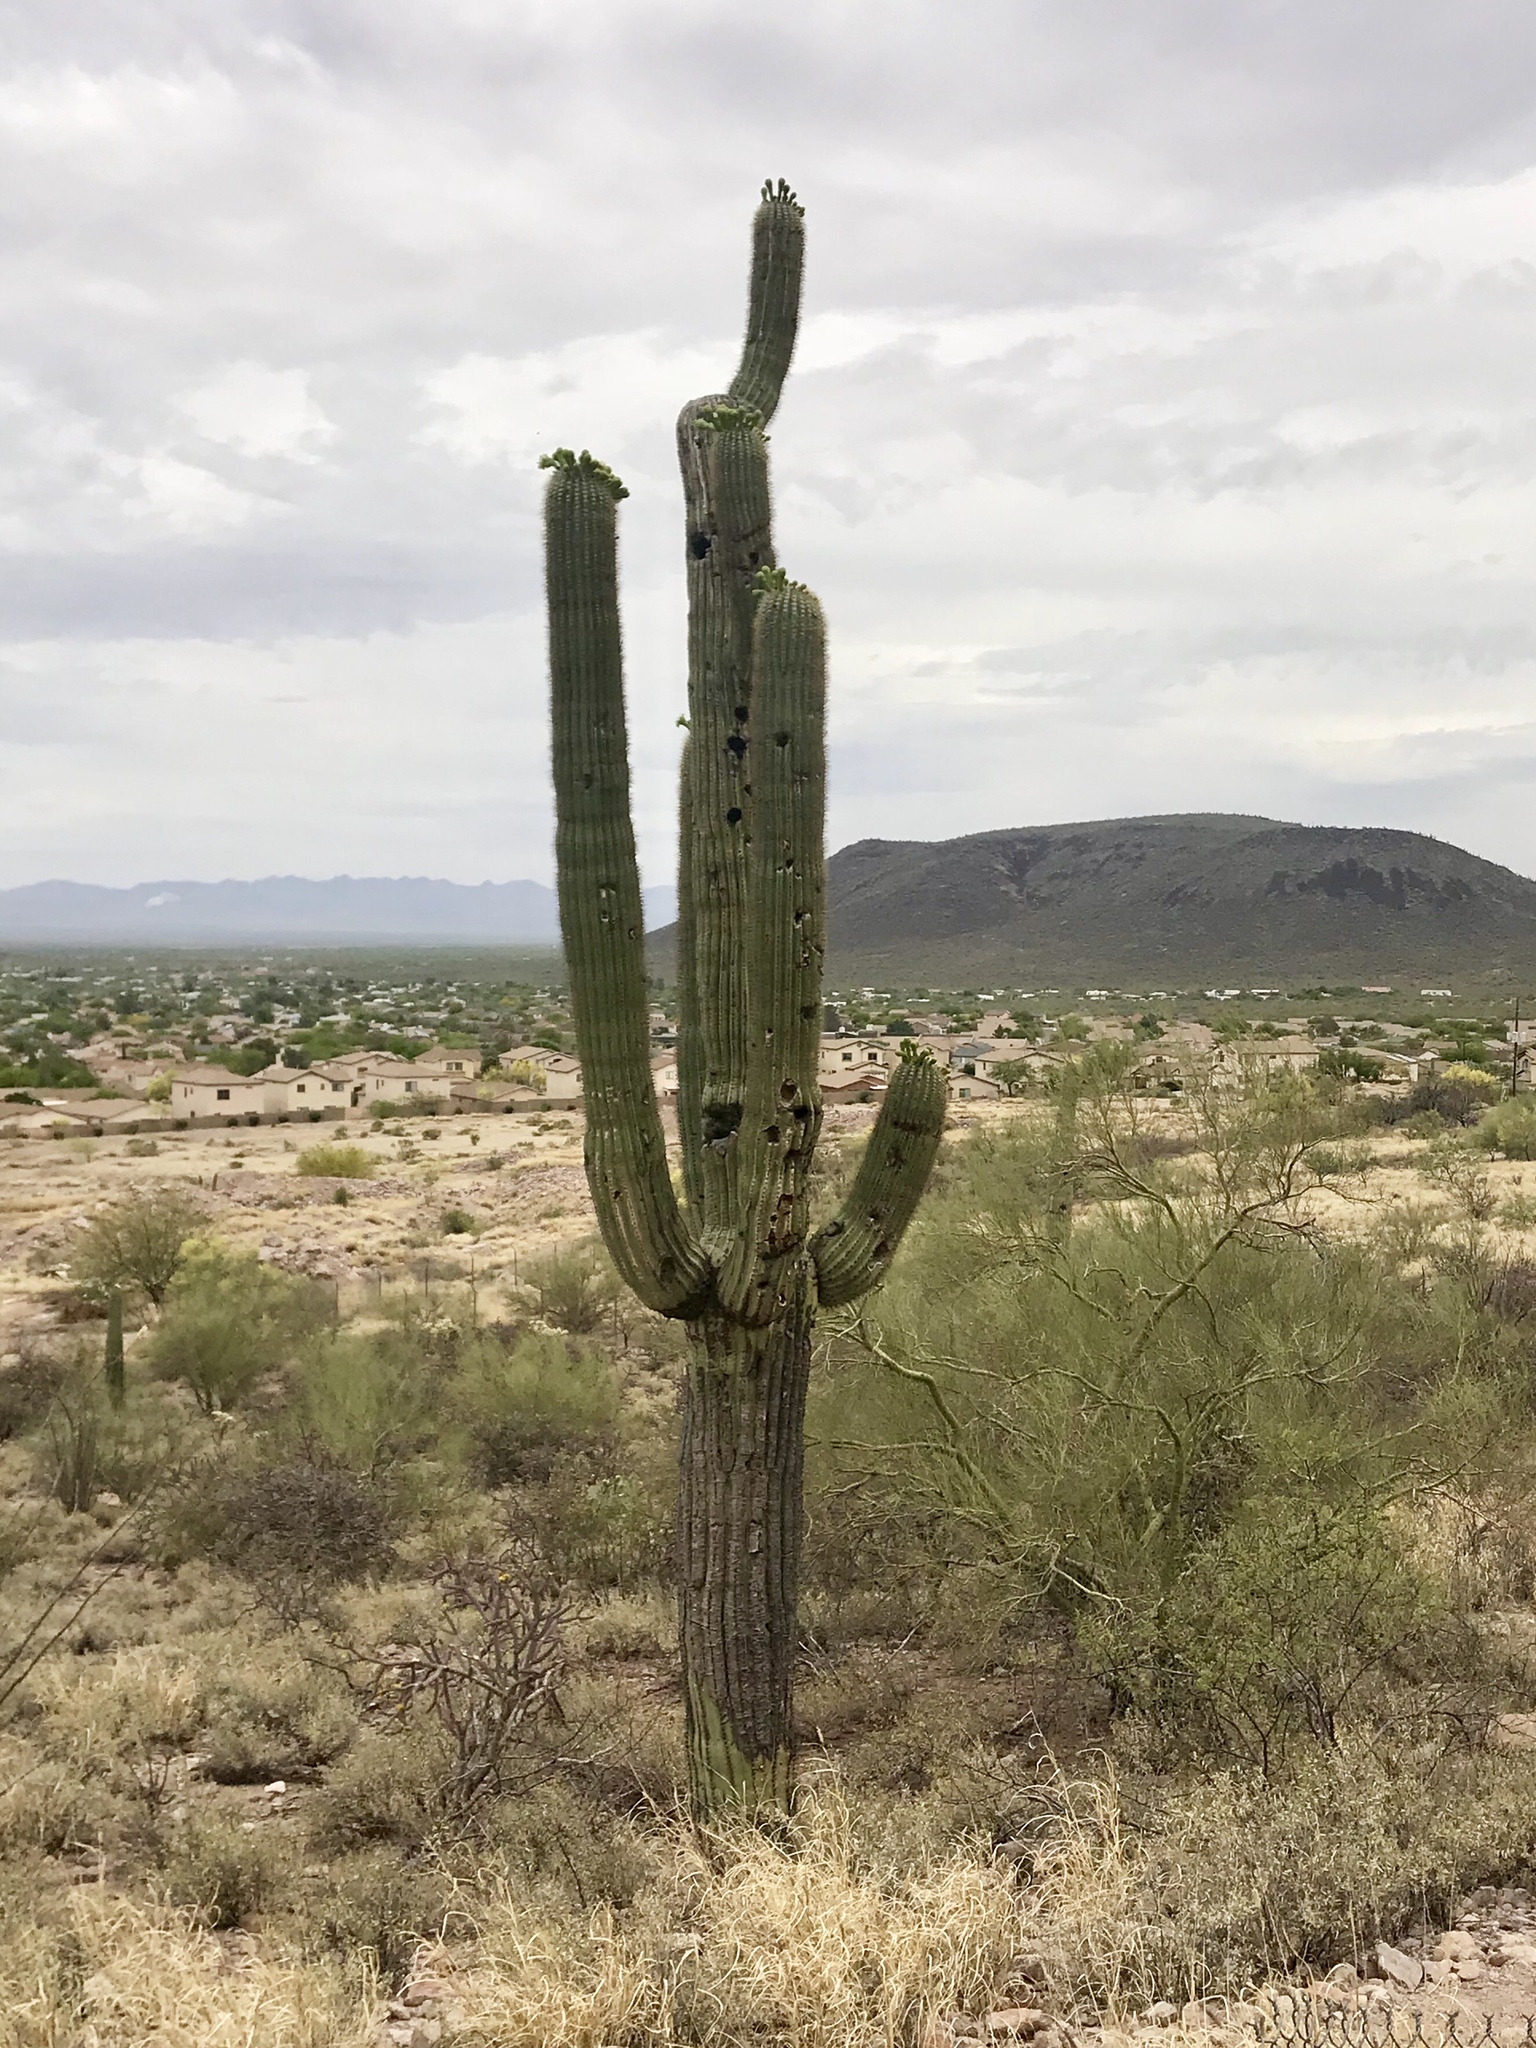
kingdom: Plantae
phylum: Tracheophyta
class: Magnoliopsida
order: Caryophyllales
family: Cactaceae
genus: Carnegiea
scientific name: Carnegiea gigantea
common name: Saguaro
